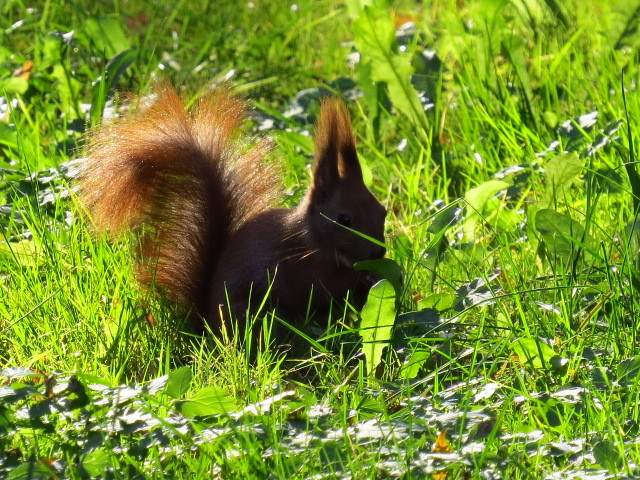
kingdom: Animalia
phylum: Chordata
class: Mammalia
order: Rodentia
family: Sciuridae
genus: Sciurus
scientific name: Sciurus vulgaris
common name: Eurasian red squirrel
